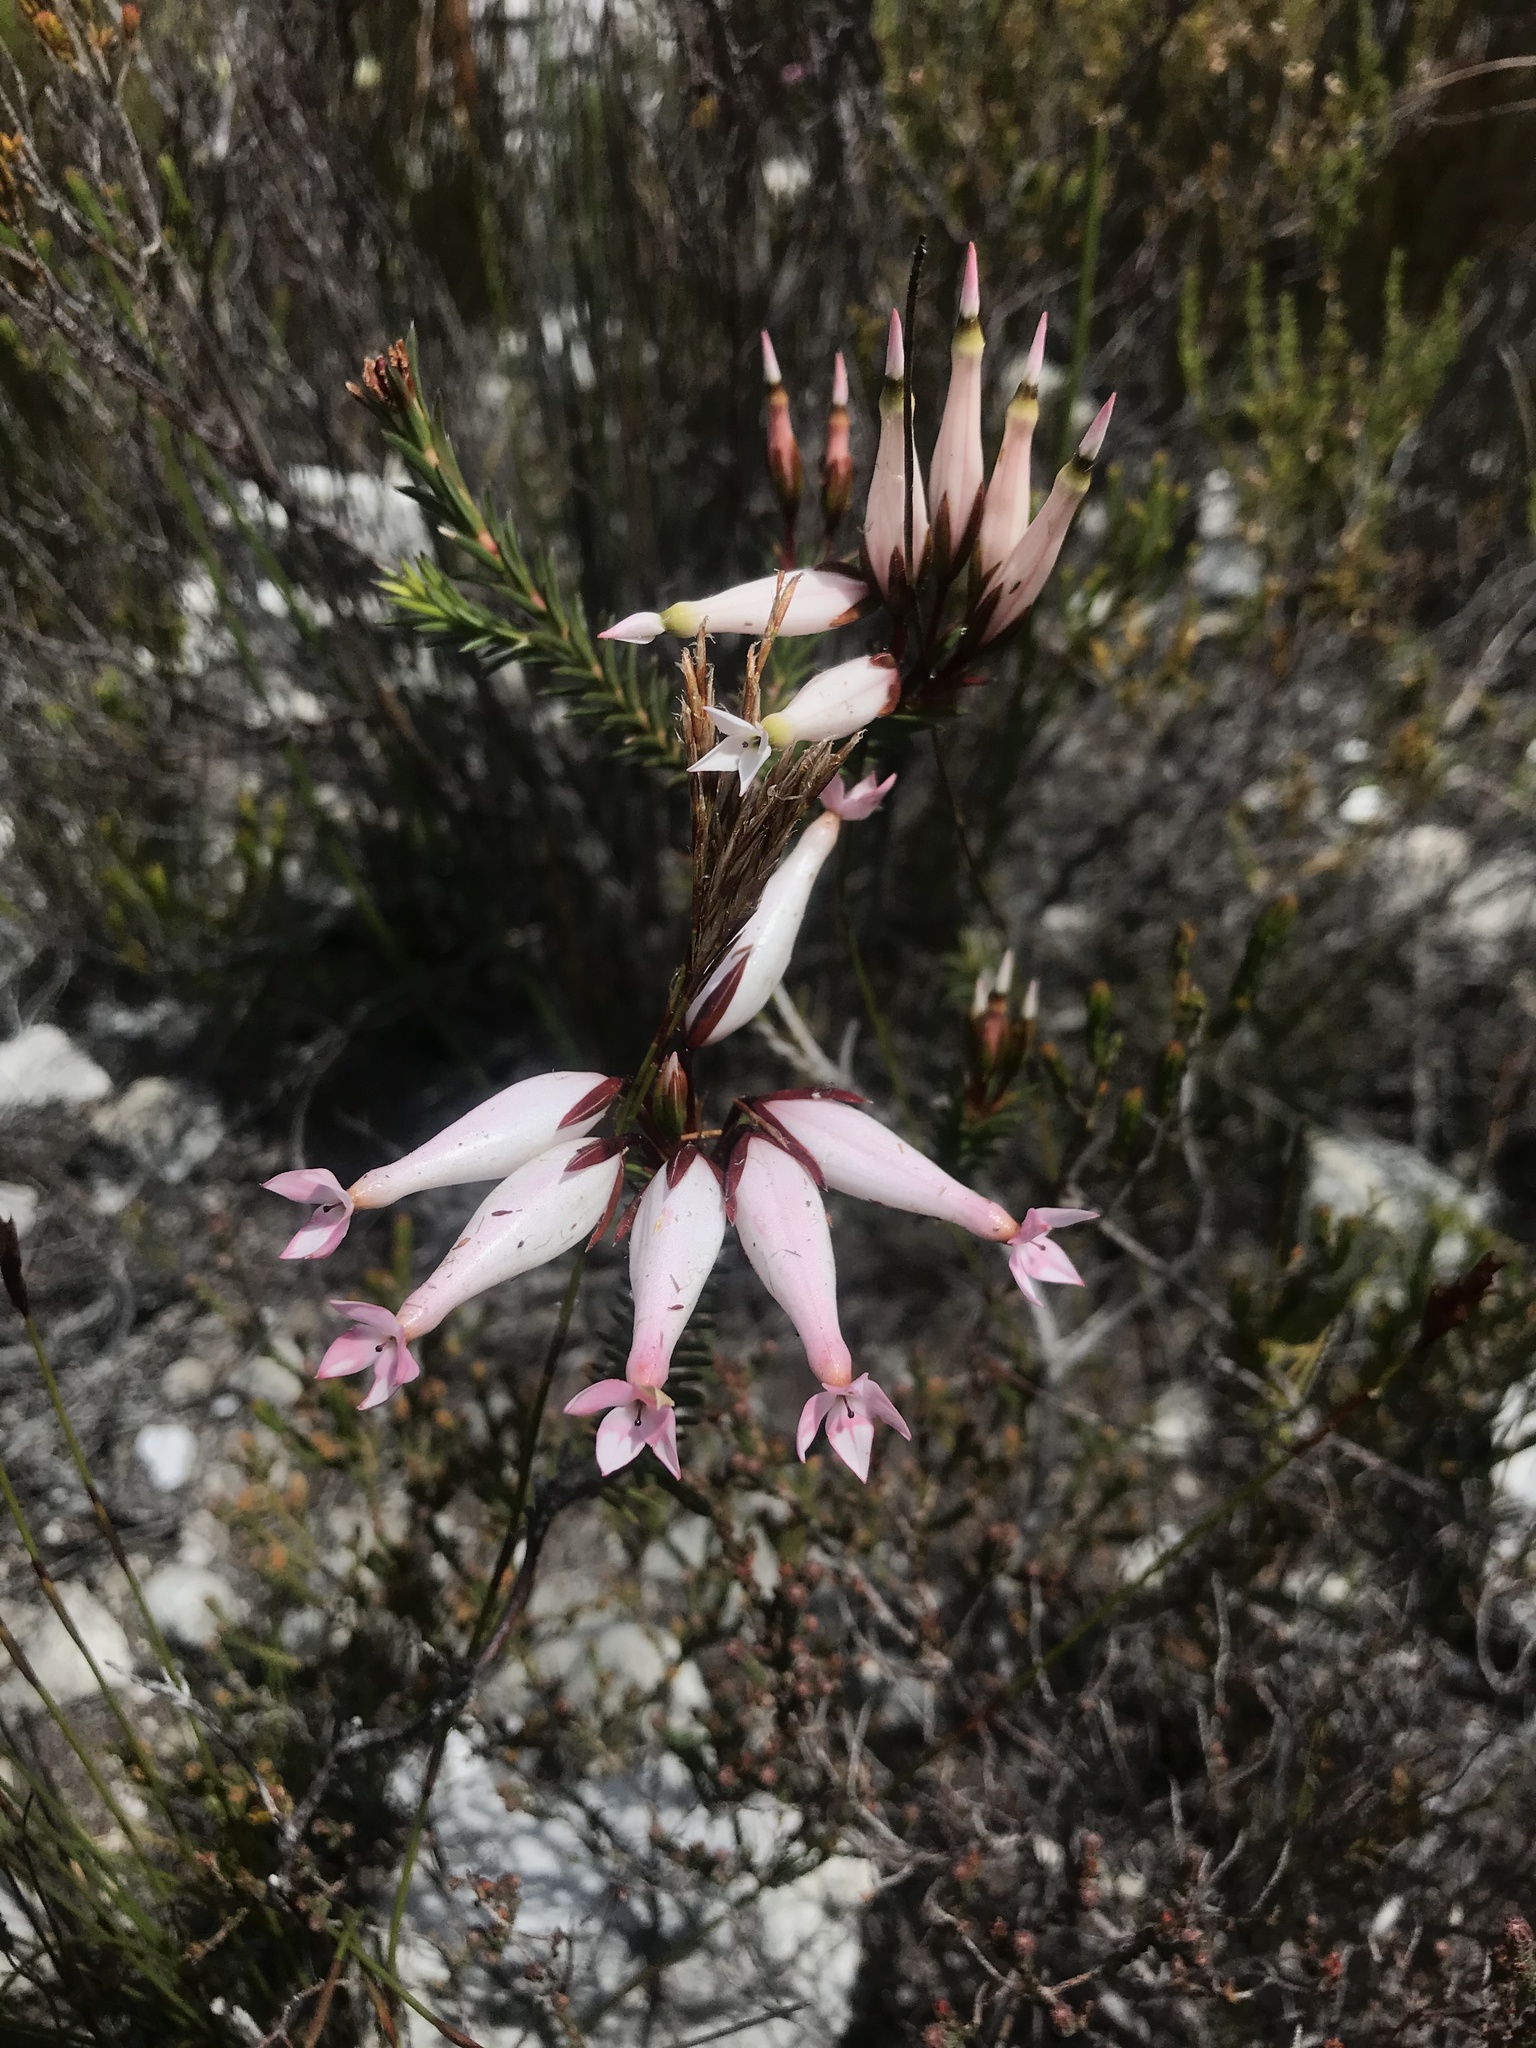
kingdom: Plantae
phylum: Tracheophyta
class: Magnoliopsida
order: Ericales
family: Ericaceae
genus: Erica
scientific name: Erica shannonea
